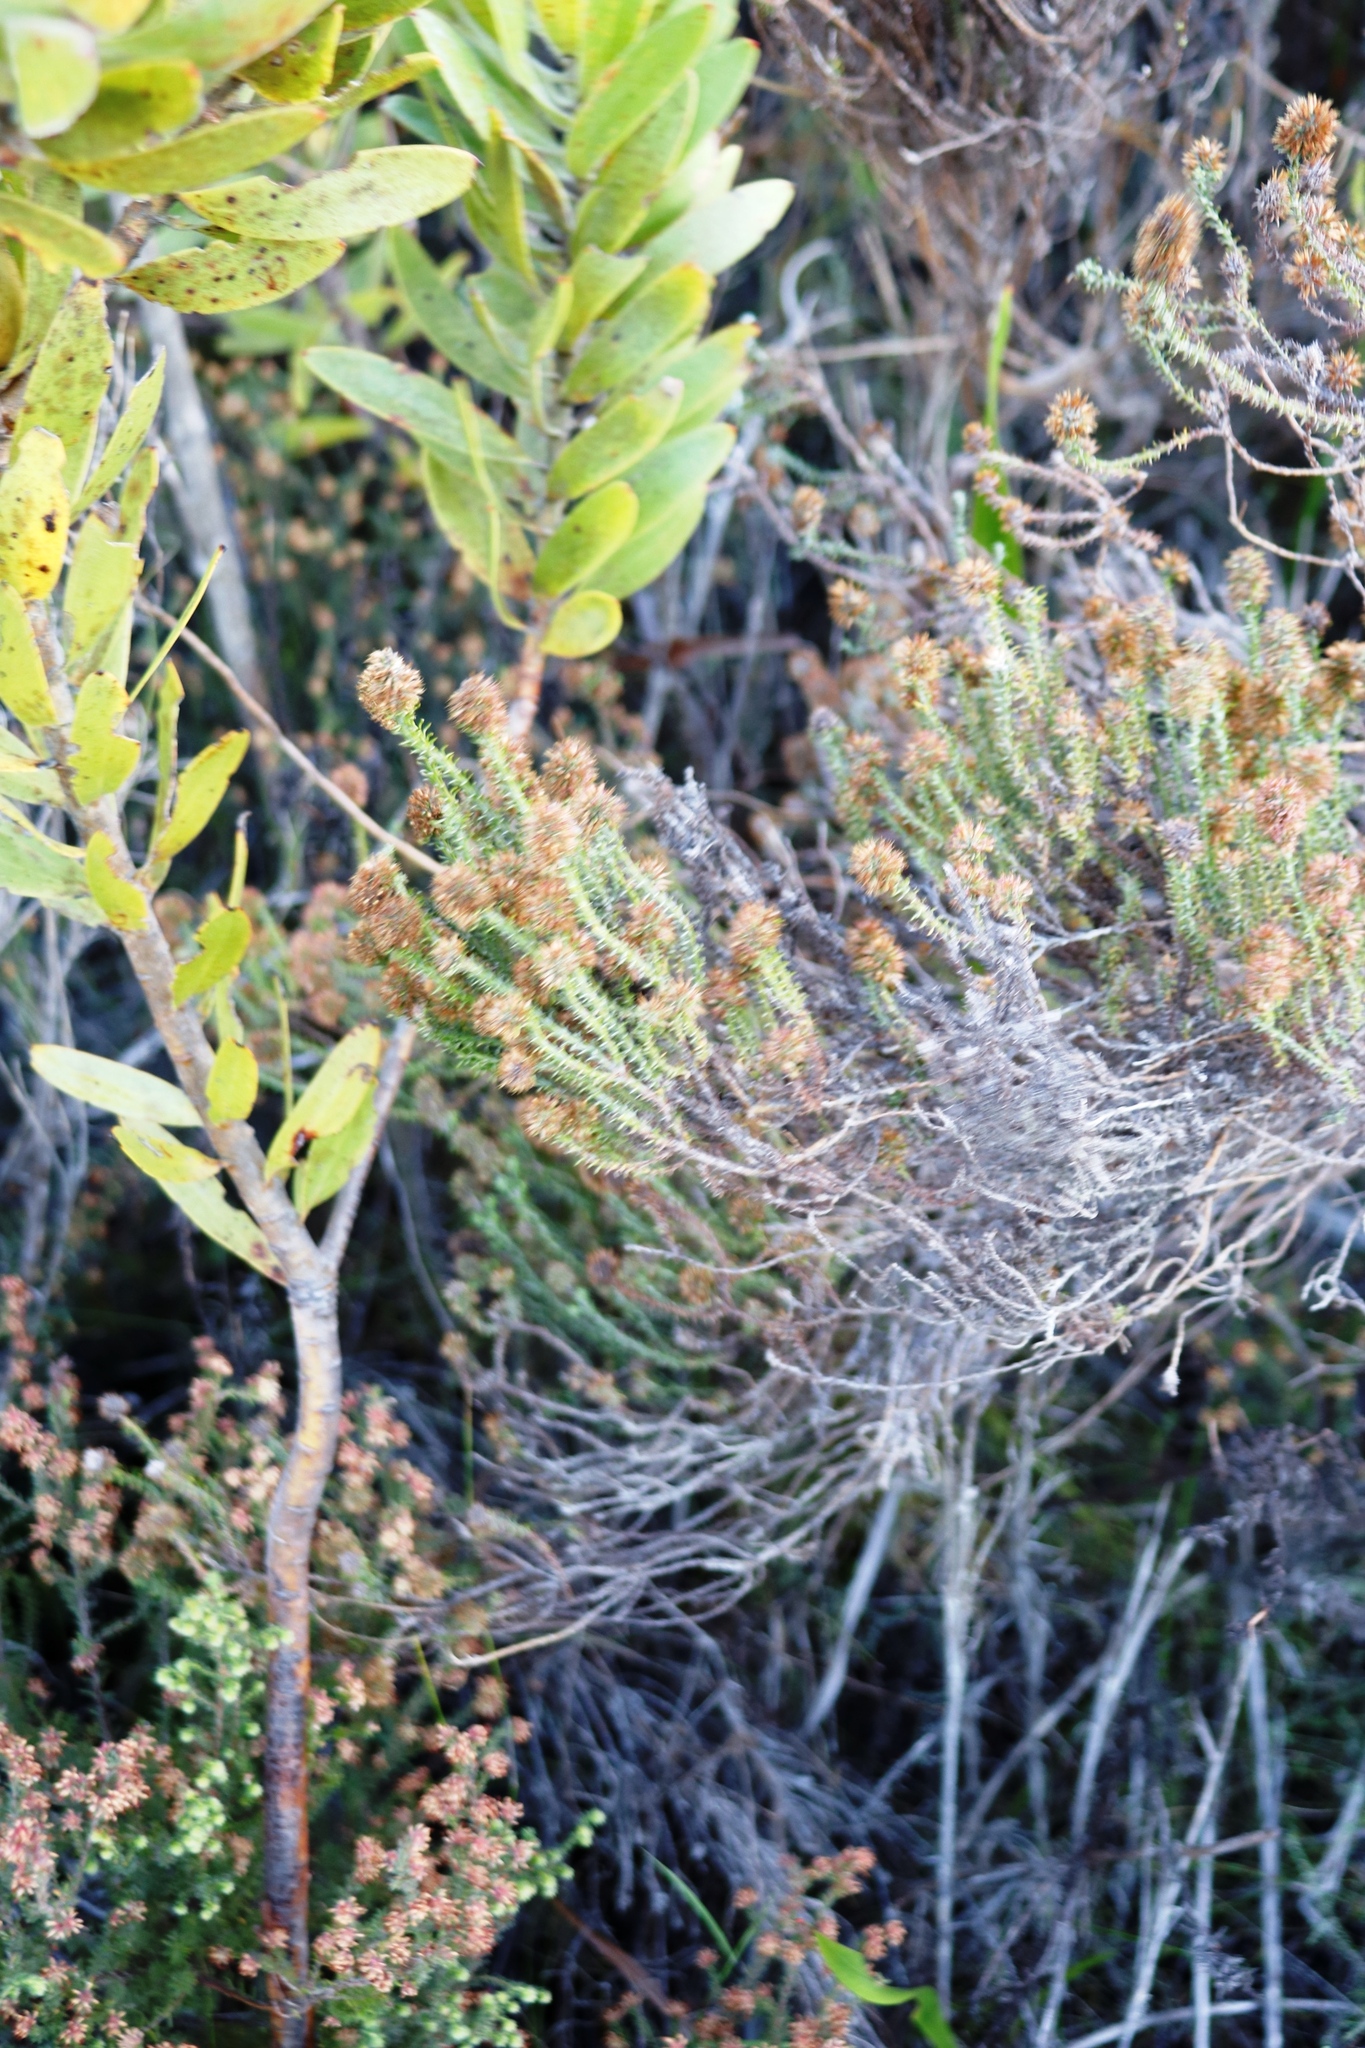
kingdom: Plantae
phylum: Tracheophyta
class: Magnoliopsida
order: Asterales
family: Asteraceae
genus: Seriphium
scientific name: Seriphium spirale
